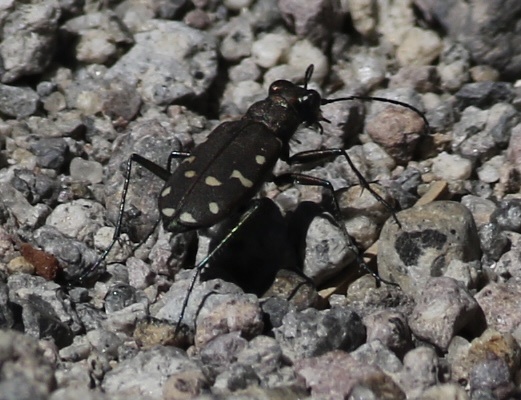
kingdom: Animalia
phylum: Arthropoda
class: Insecta
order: Coleoptera
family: Carabidae
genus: Cicindela
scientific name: Cicindela oregona
